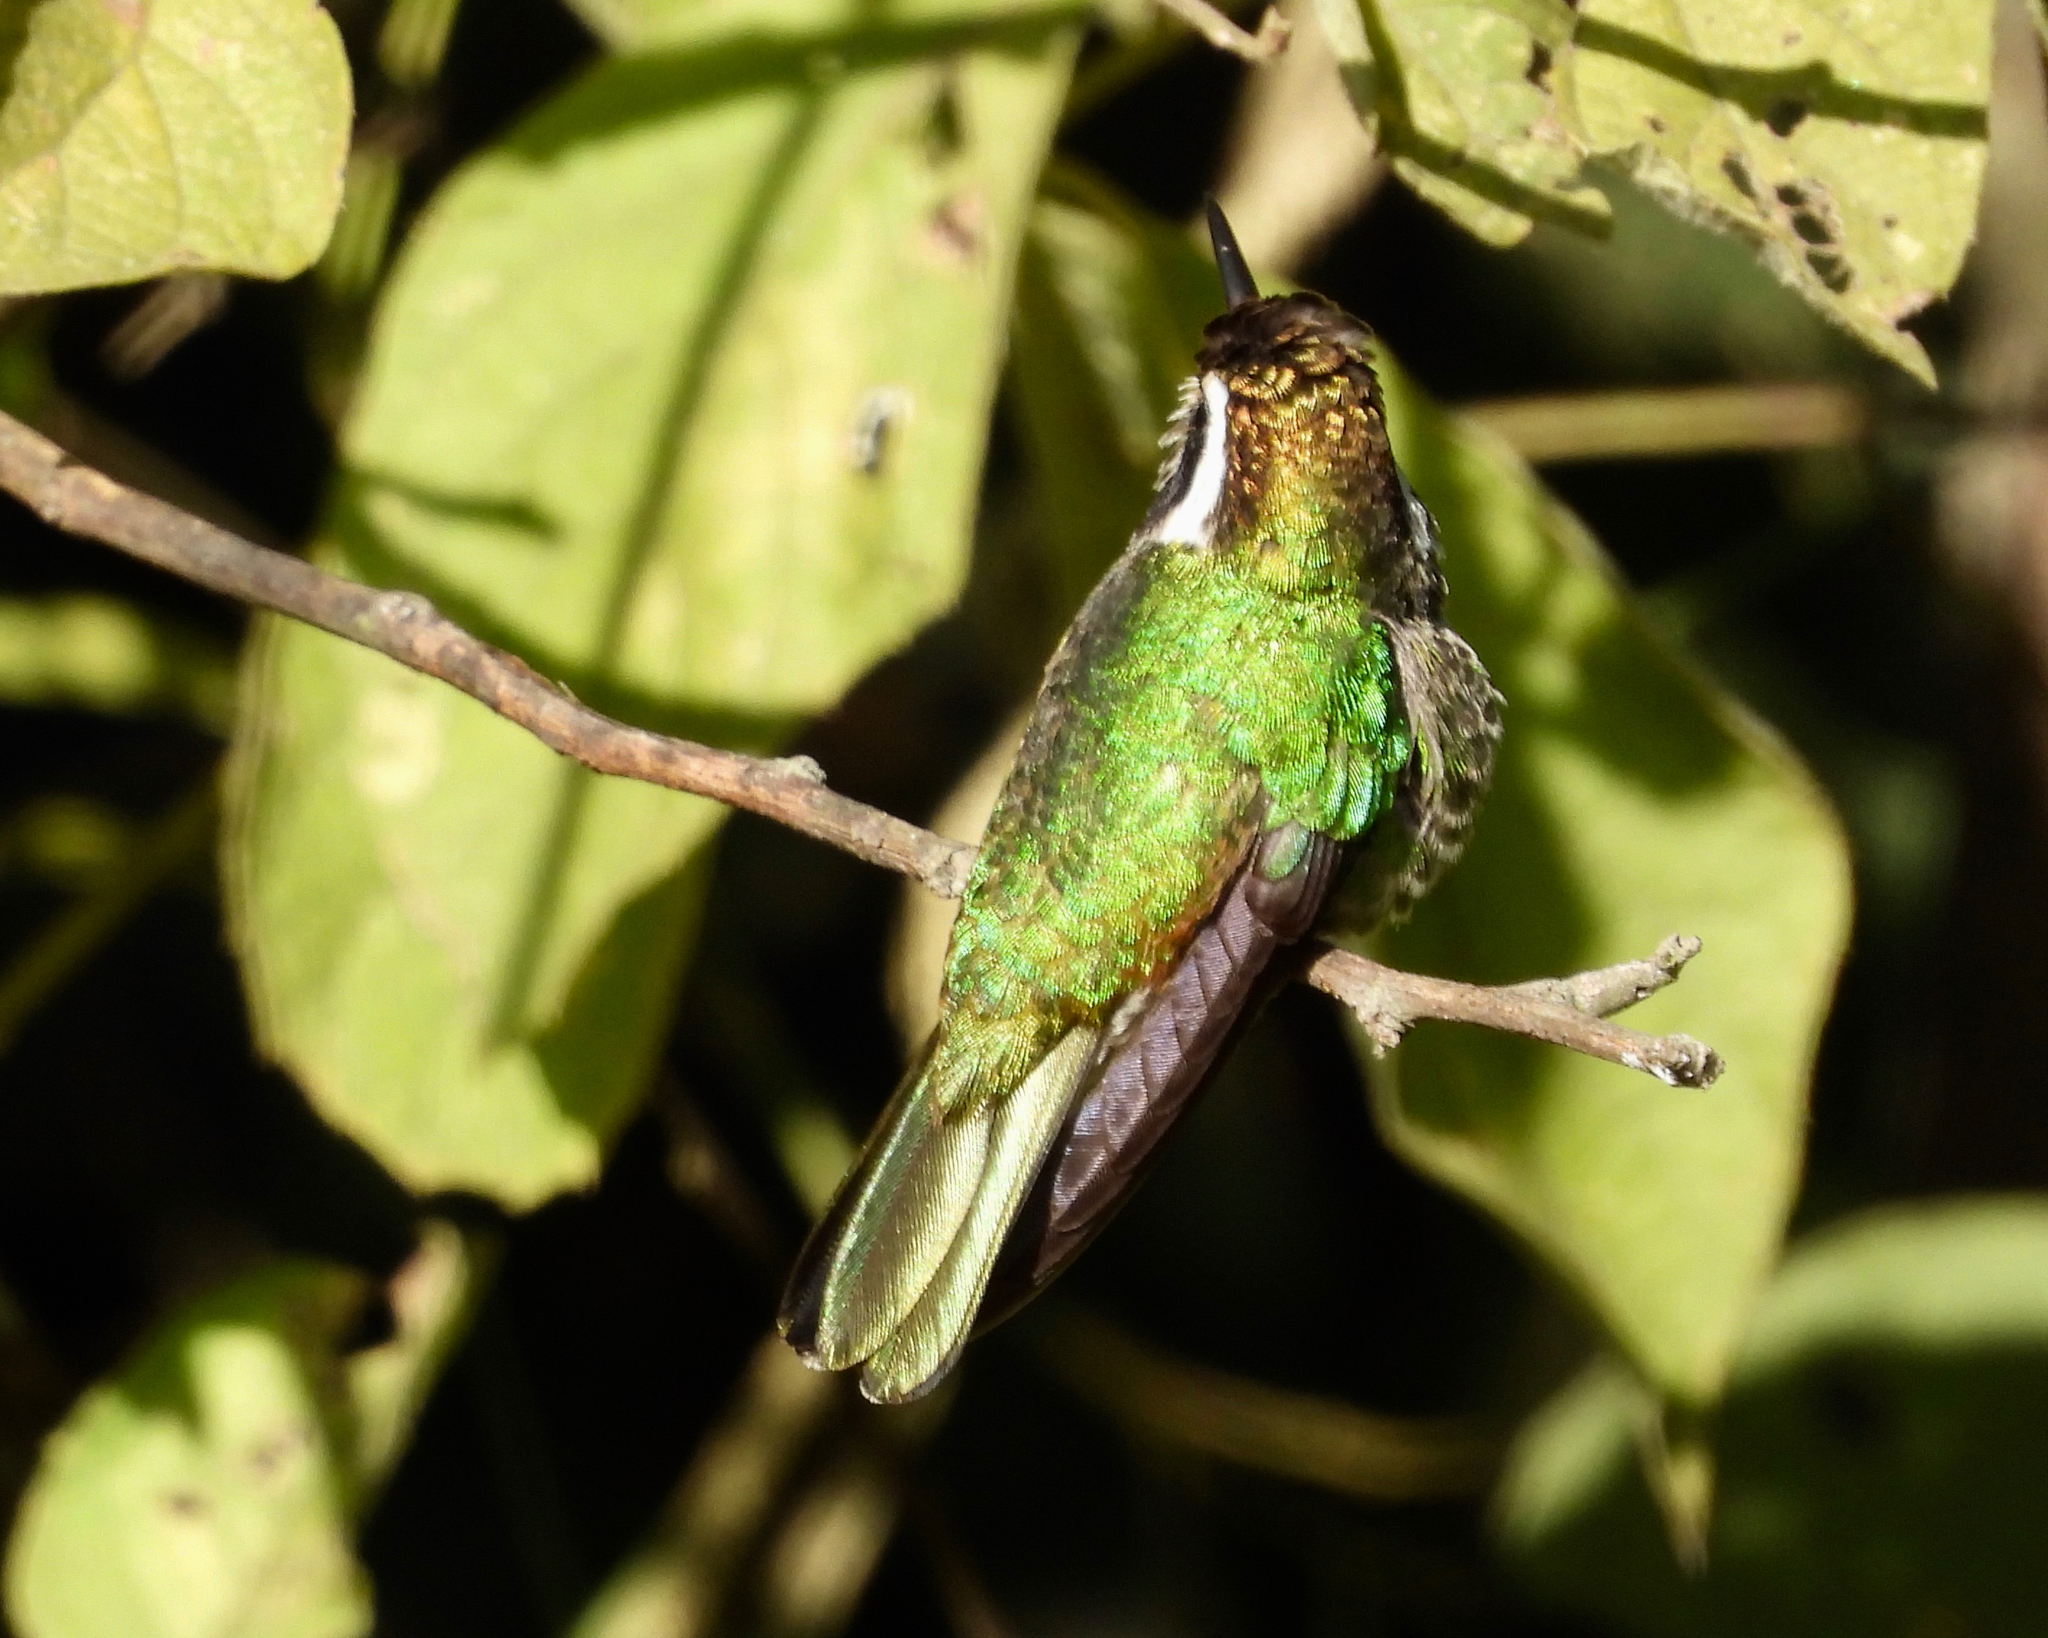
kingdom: Animalia
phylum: Chordata
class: Aves
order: Apodiformes
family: Trochilidae
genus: Basilinna
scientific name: Basilinna leucotis
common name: White-eared hummingbird
